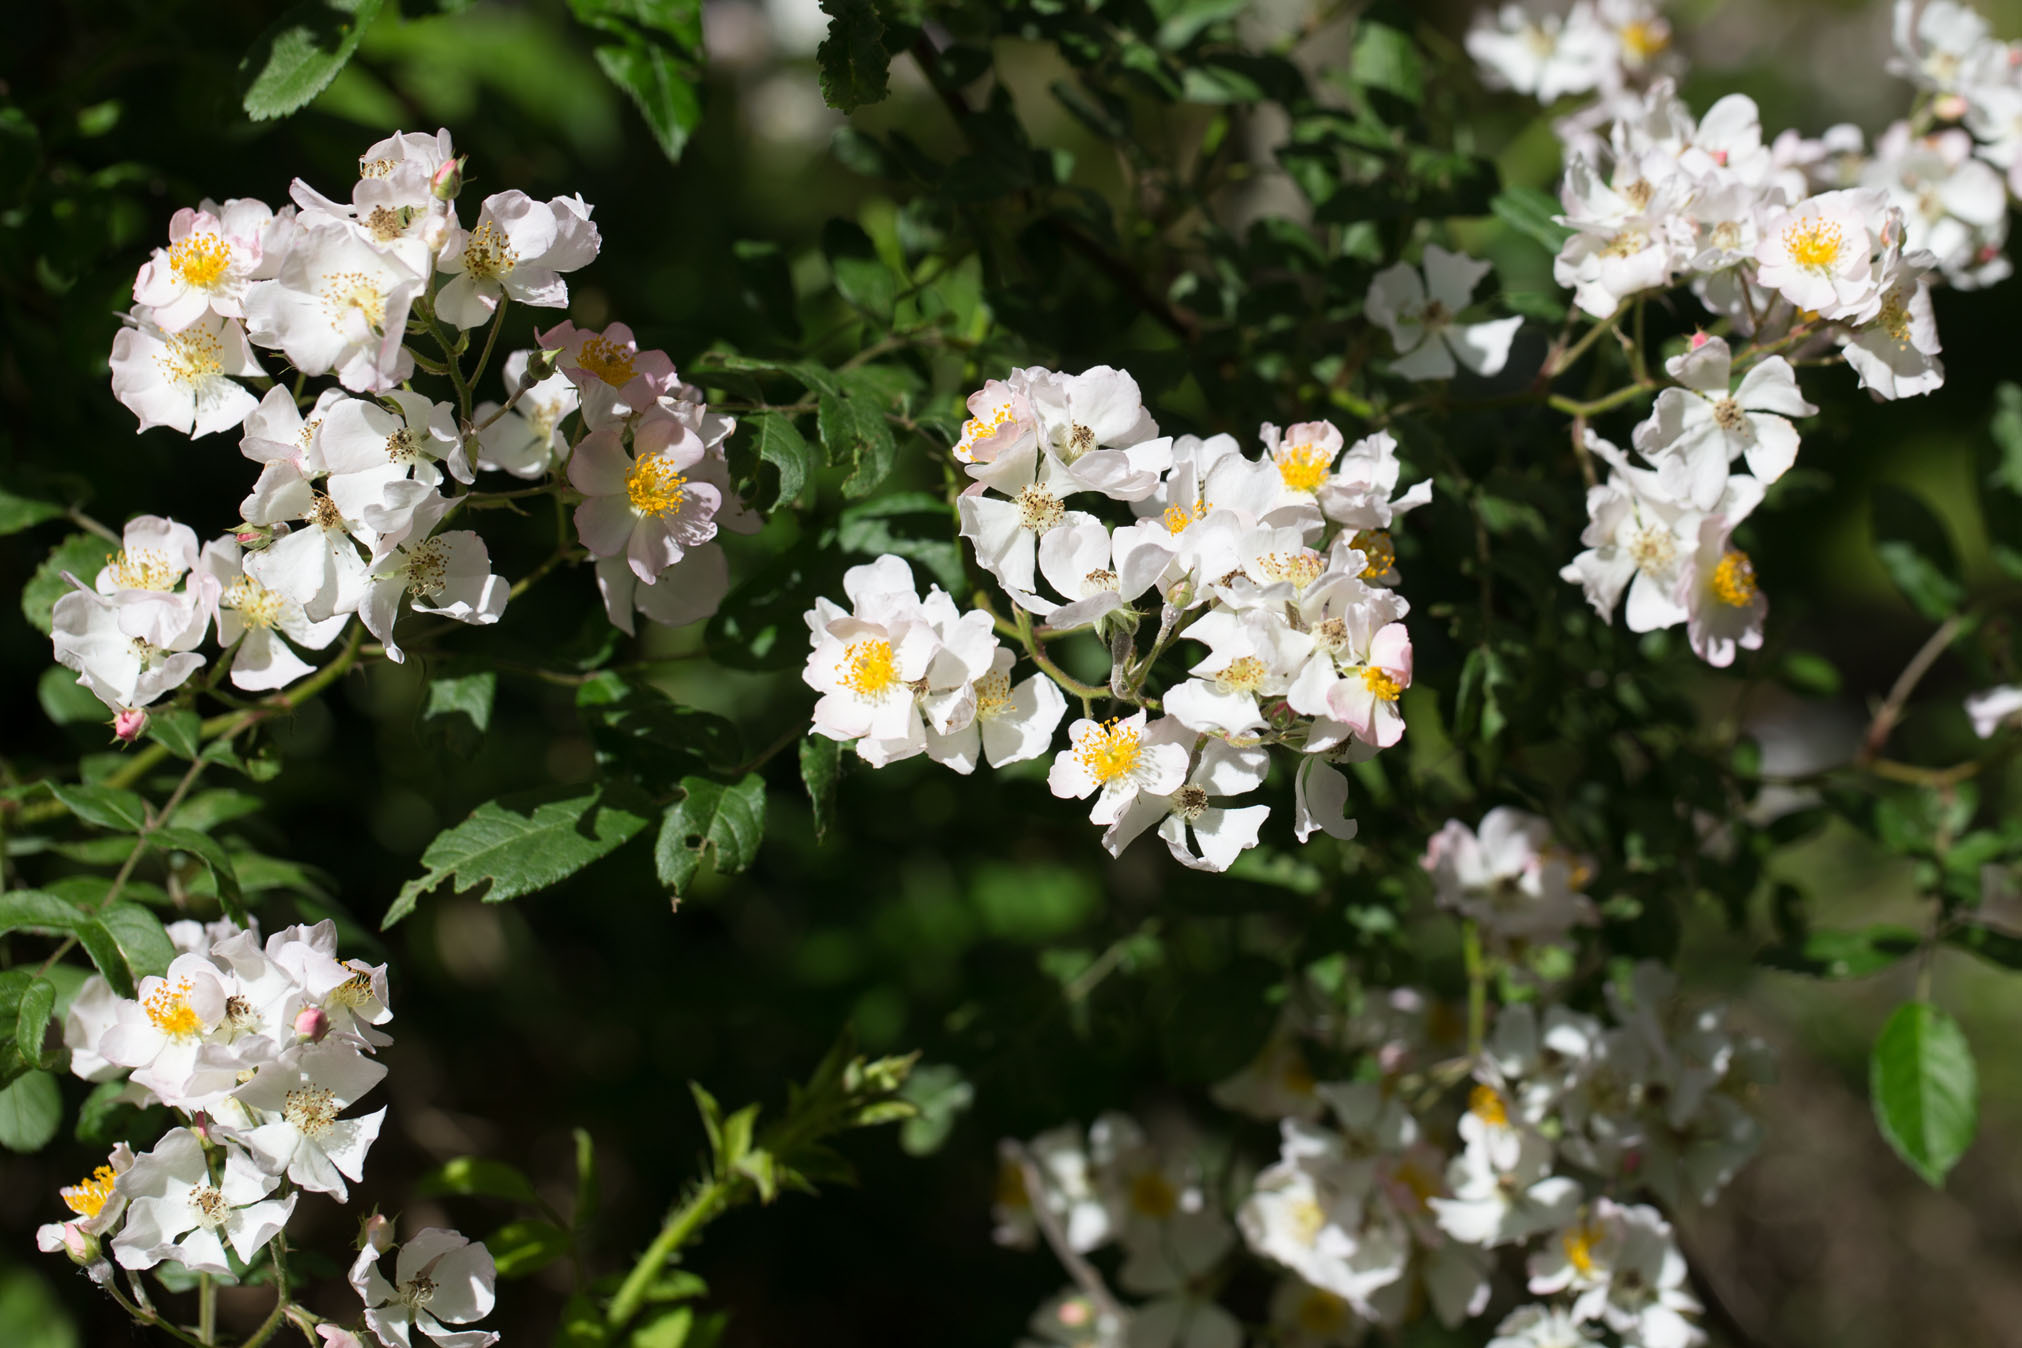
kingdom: Plantae
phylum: Tracheophyta
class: Magnoliopsida
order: Rosales
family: Rosaceae
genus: Rosa
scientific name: Rosa multiflora
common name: Multiflora rose
